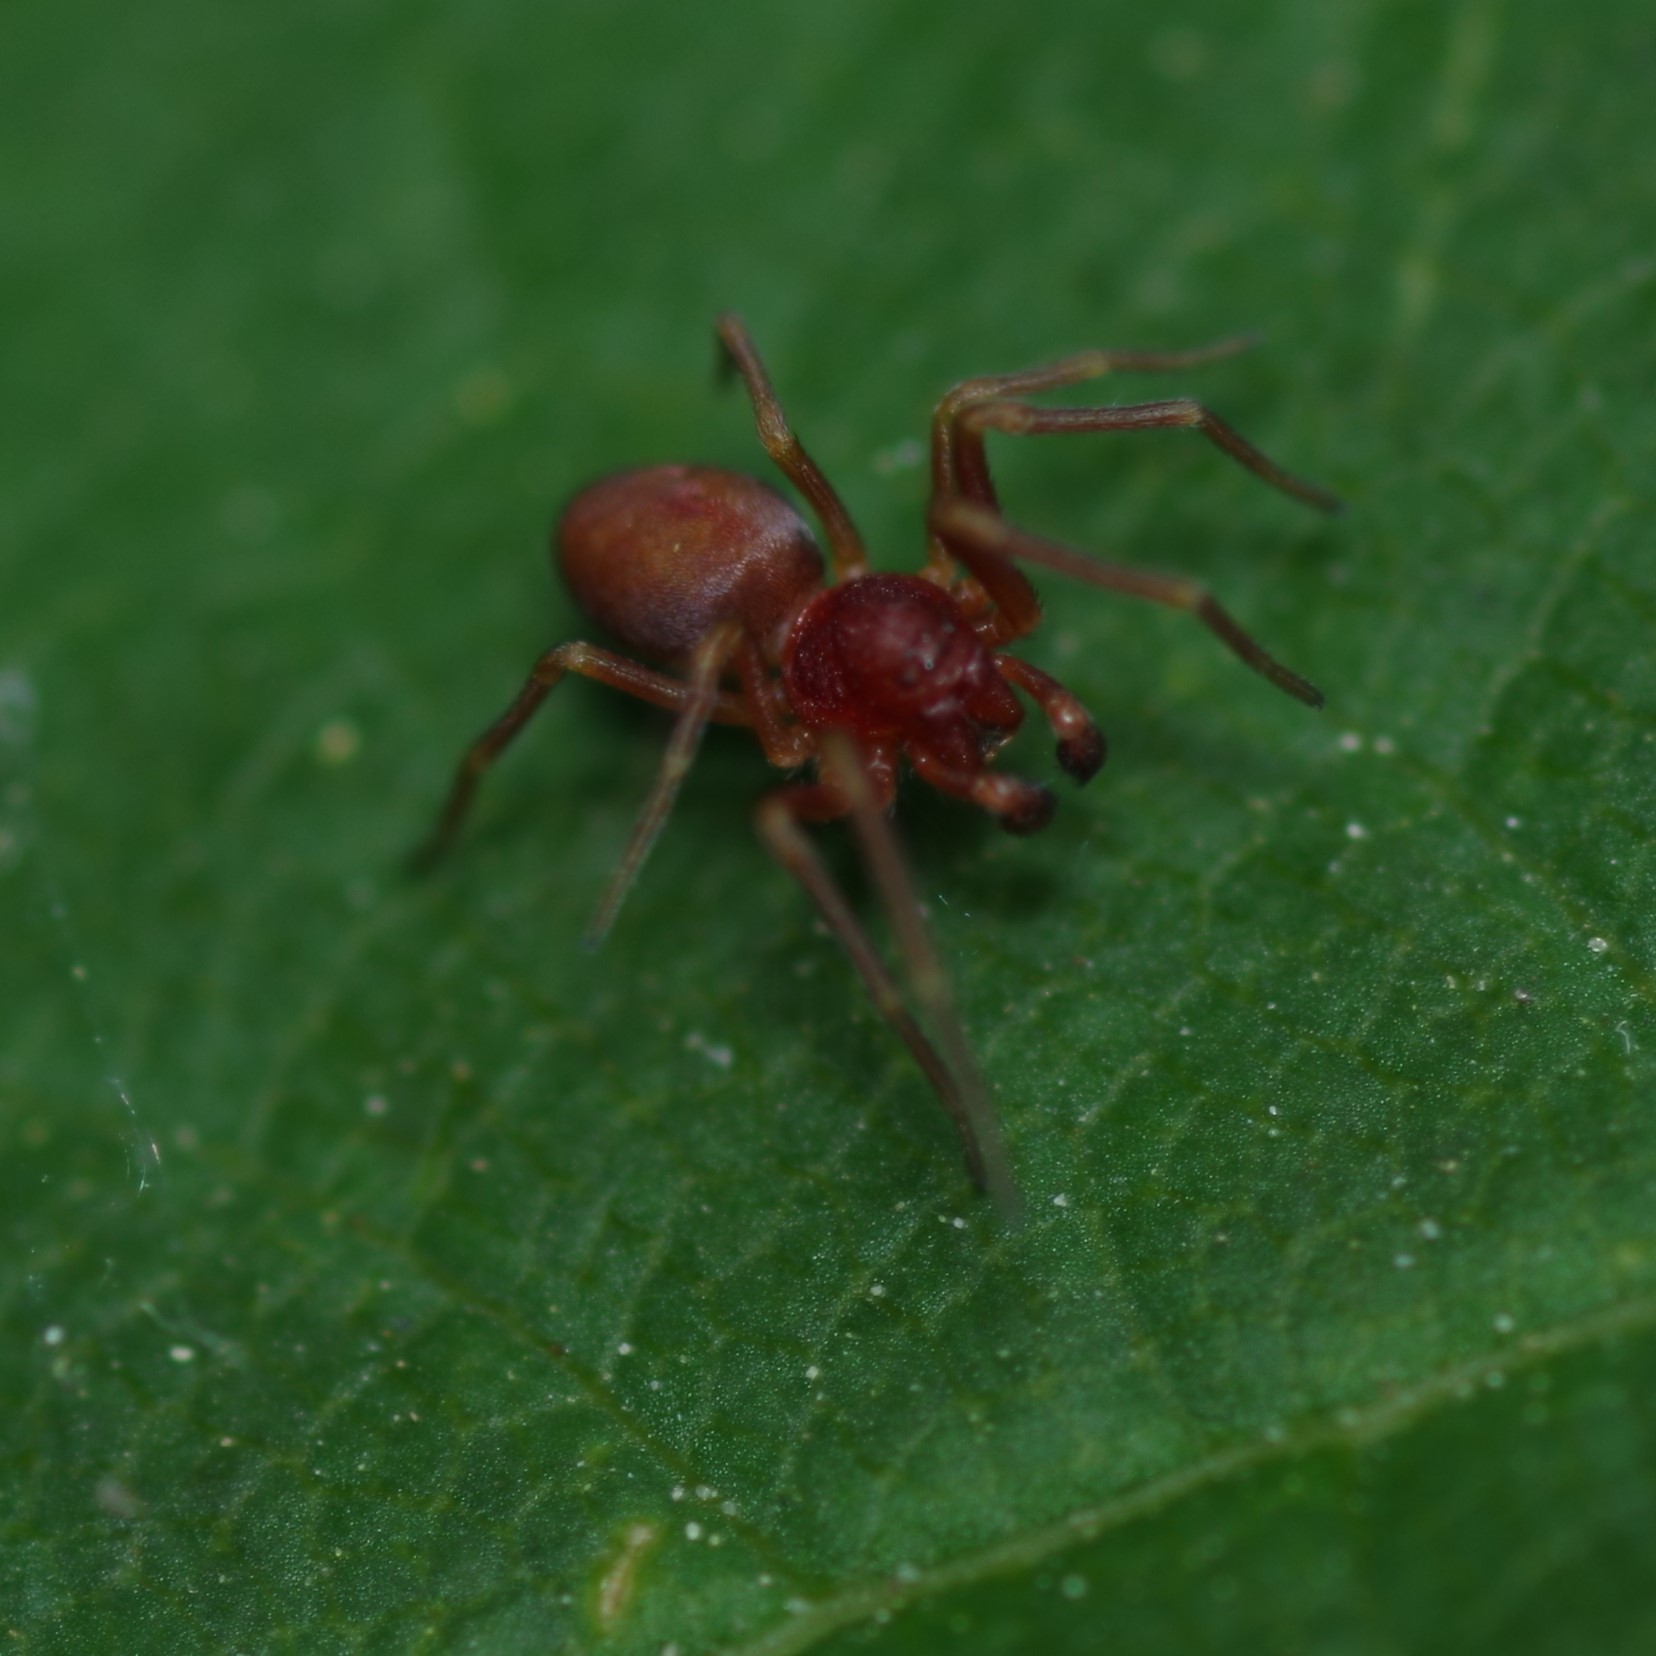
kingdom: Animalia
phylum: Arthropoda
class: Arachnida
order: Araneae
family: Dictynidae
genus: Nigma
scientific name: Nigma
